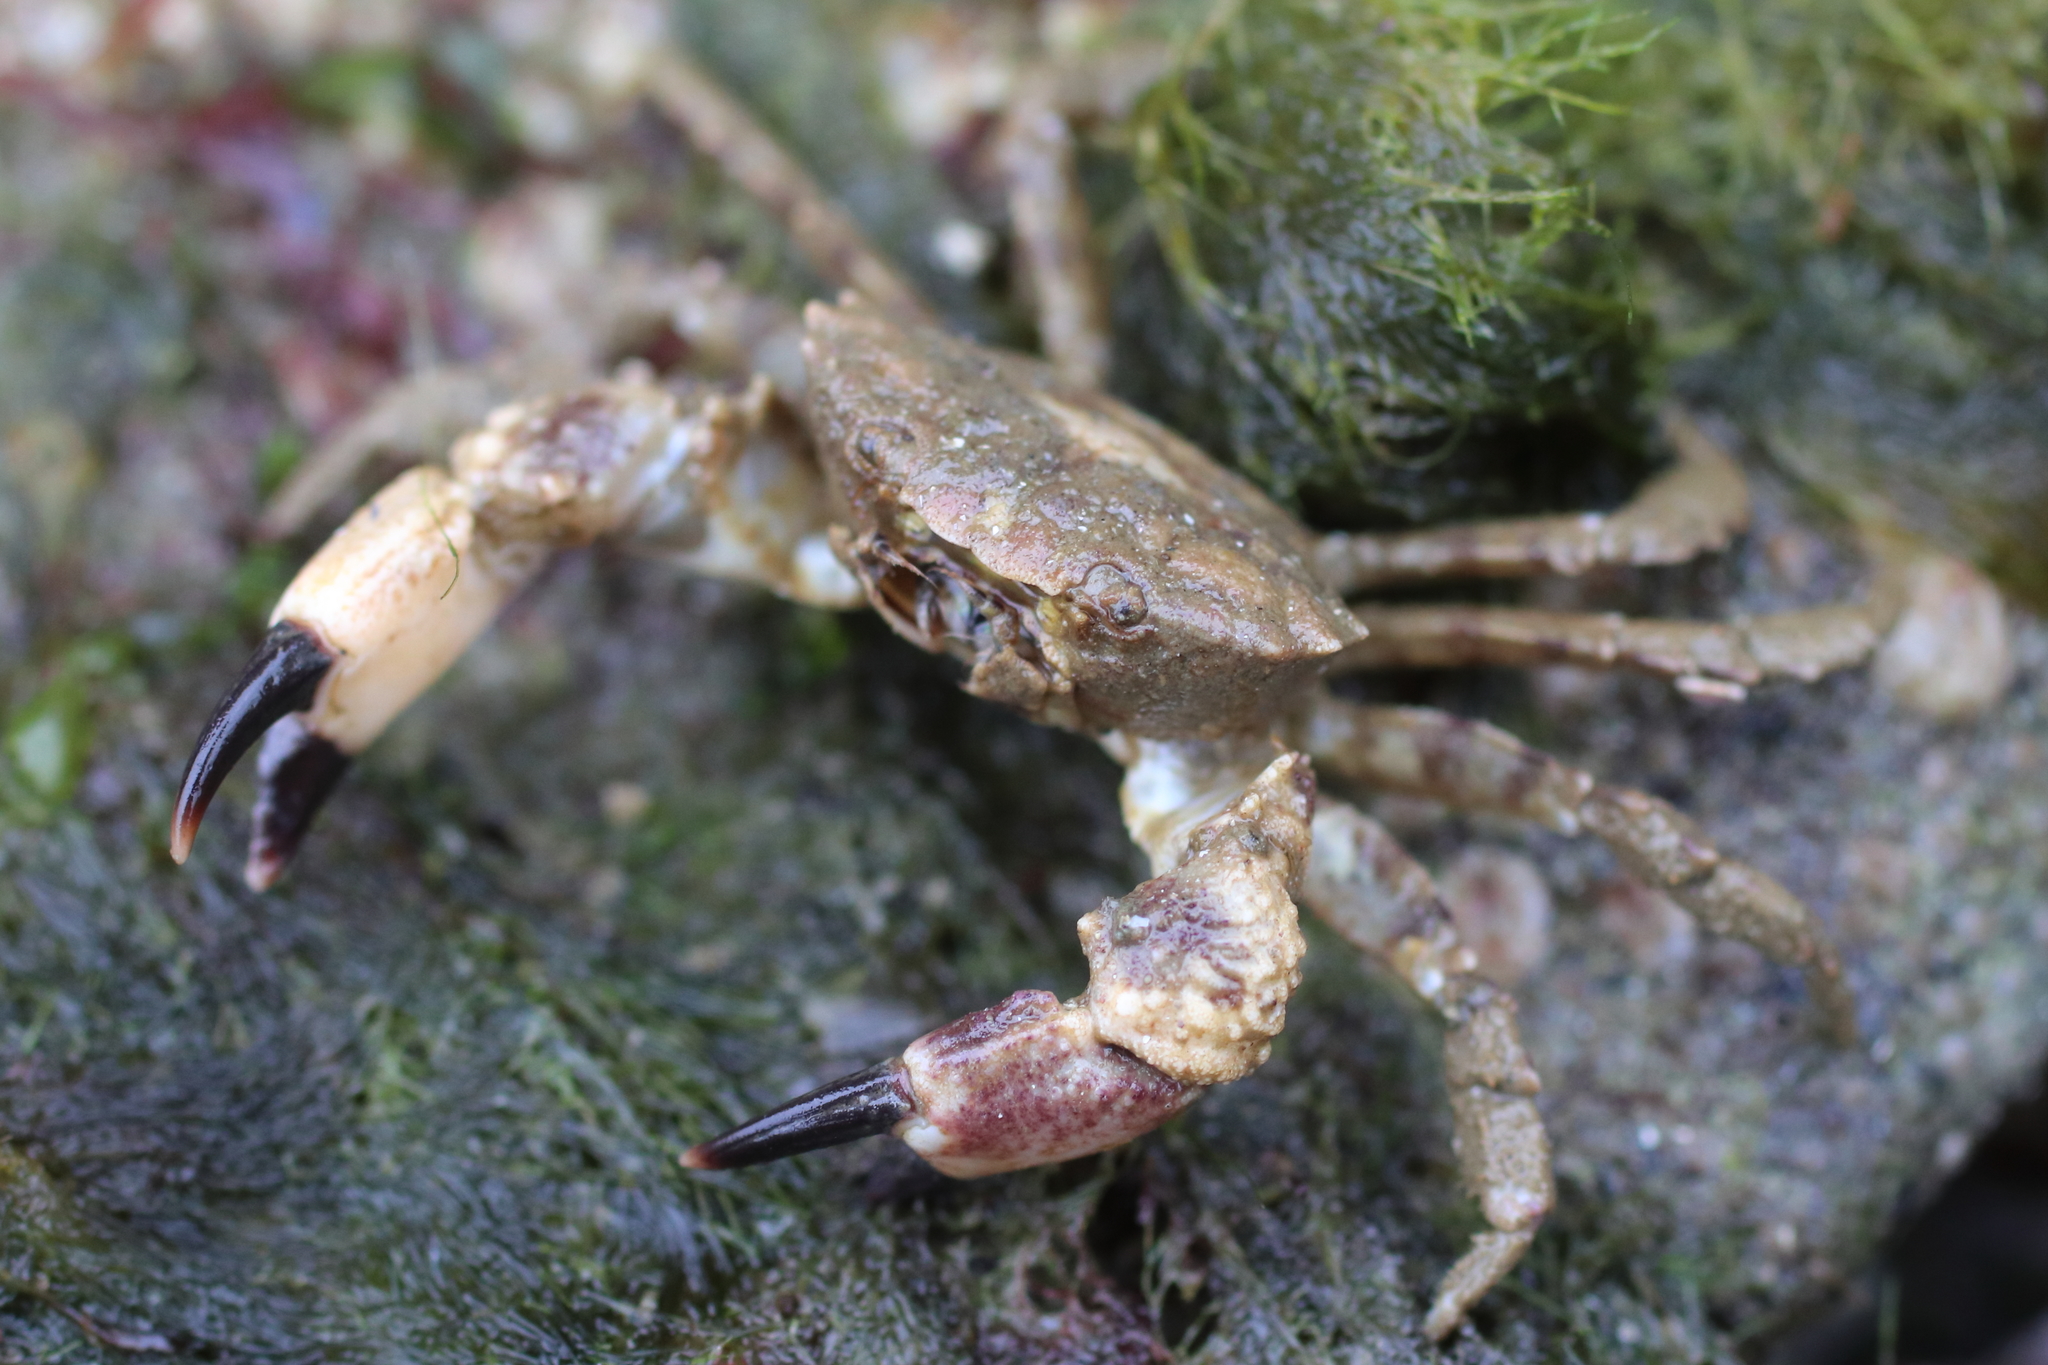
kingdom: Animalia
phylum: Arthropoda
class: Malacostraca
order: Decapoda
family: Panopeidae
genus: Lophopanopeus
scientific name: Lophopanopeus bellus
